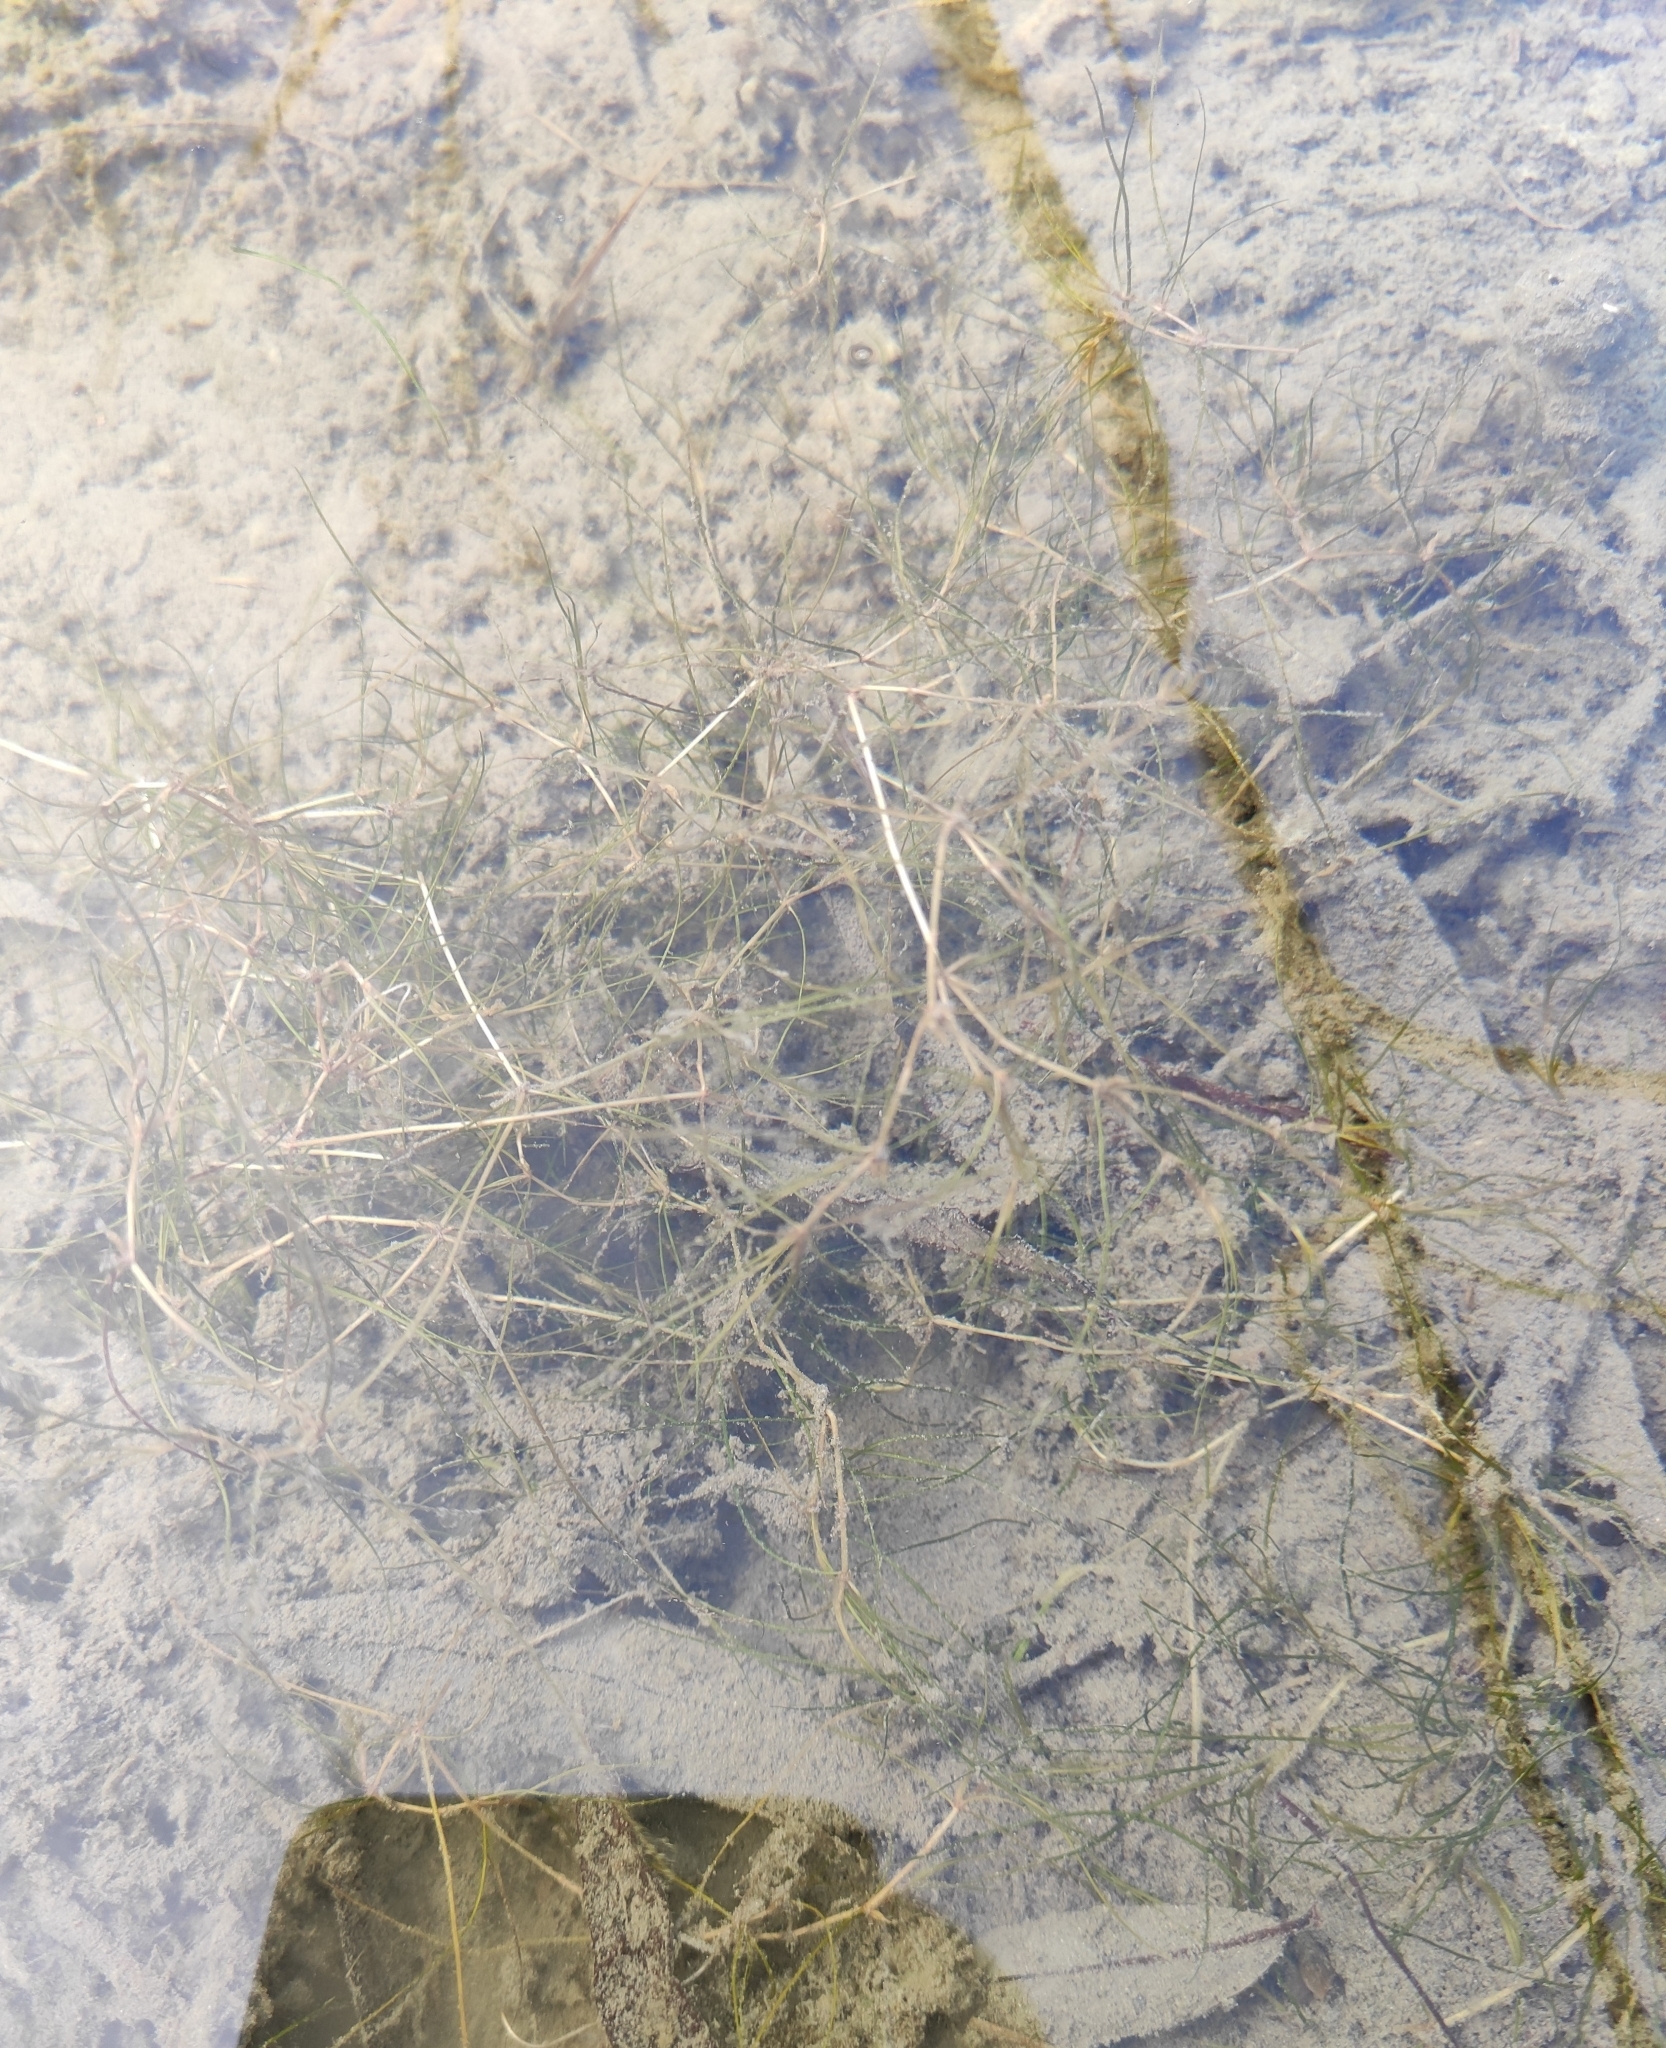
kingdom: Plantae
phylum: Tracheophyta
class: Liliopsida
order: Alismatales
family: Potamogetonaceae
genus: Zannichellia
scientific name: Zannichellia palustris
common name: Horned pondweed
